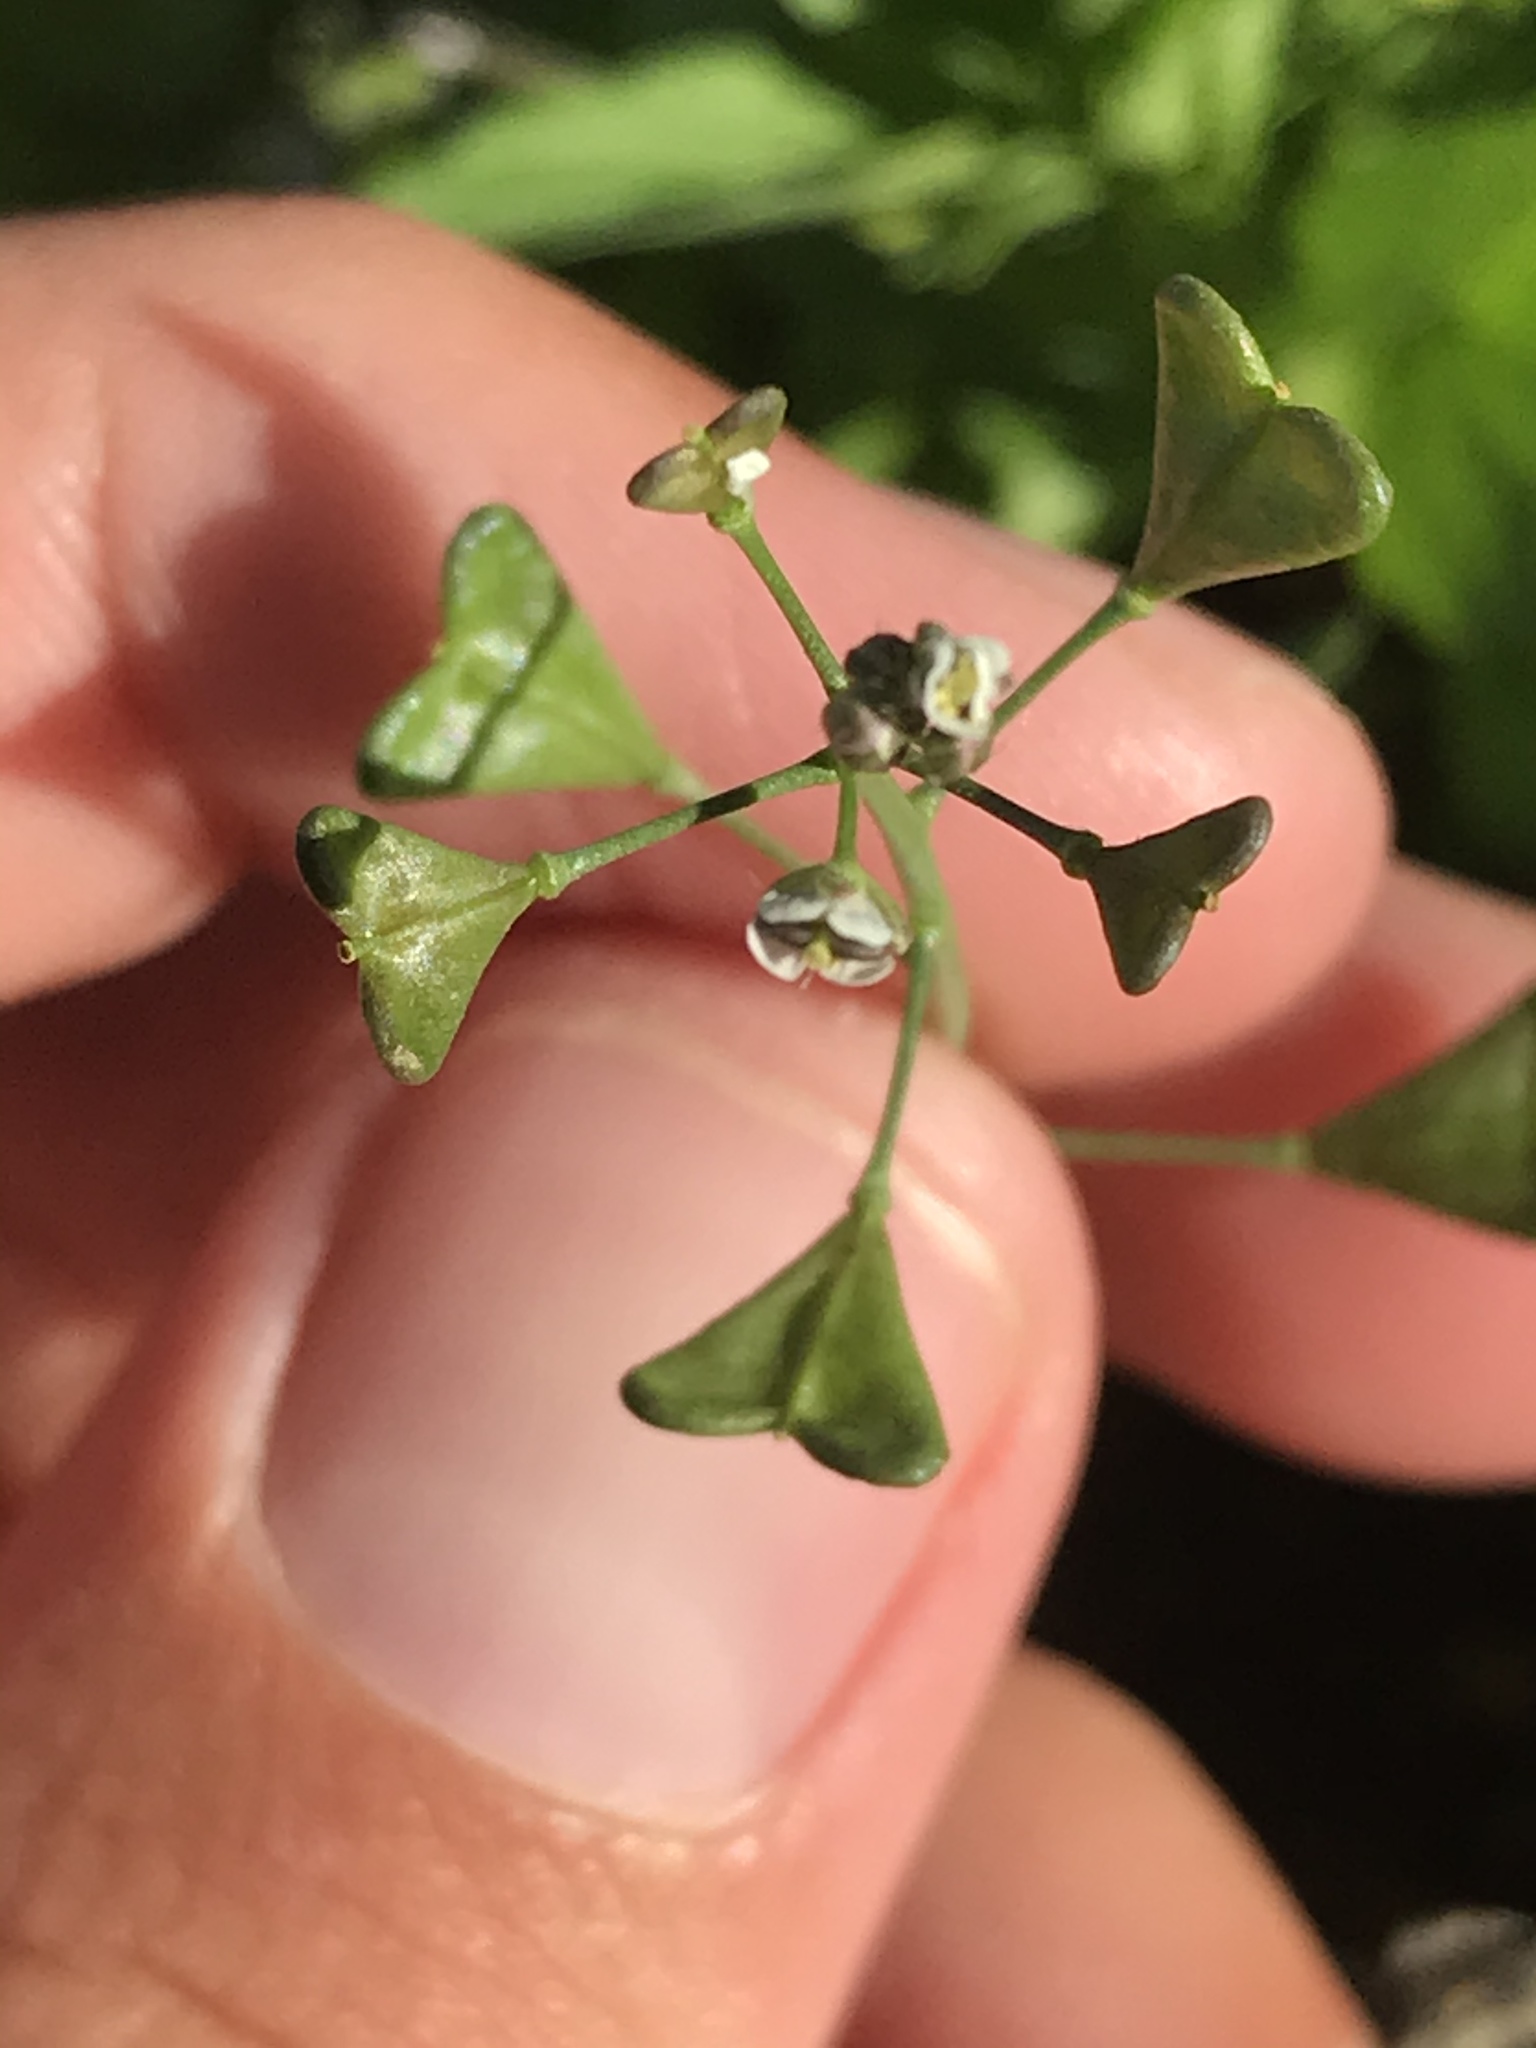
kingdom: Plantae
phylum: Tracheophyta
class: Magnoliopsida
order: Brassicales
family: Brassicaceae
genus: Capsella
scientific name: Capsella bursa-pastoris
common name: Shepherd's purse
